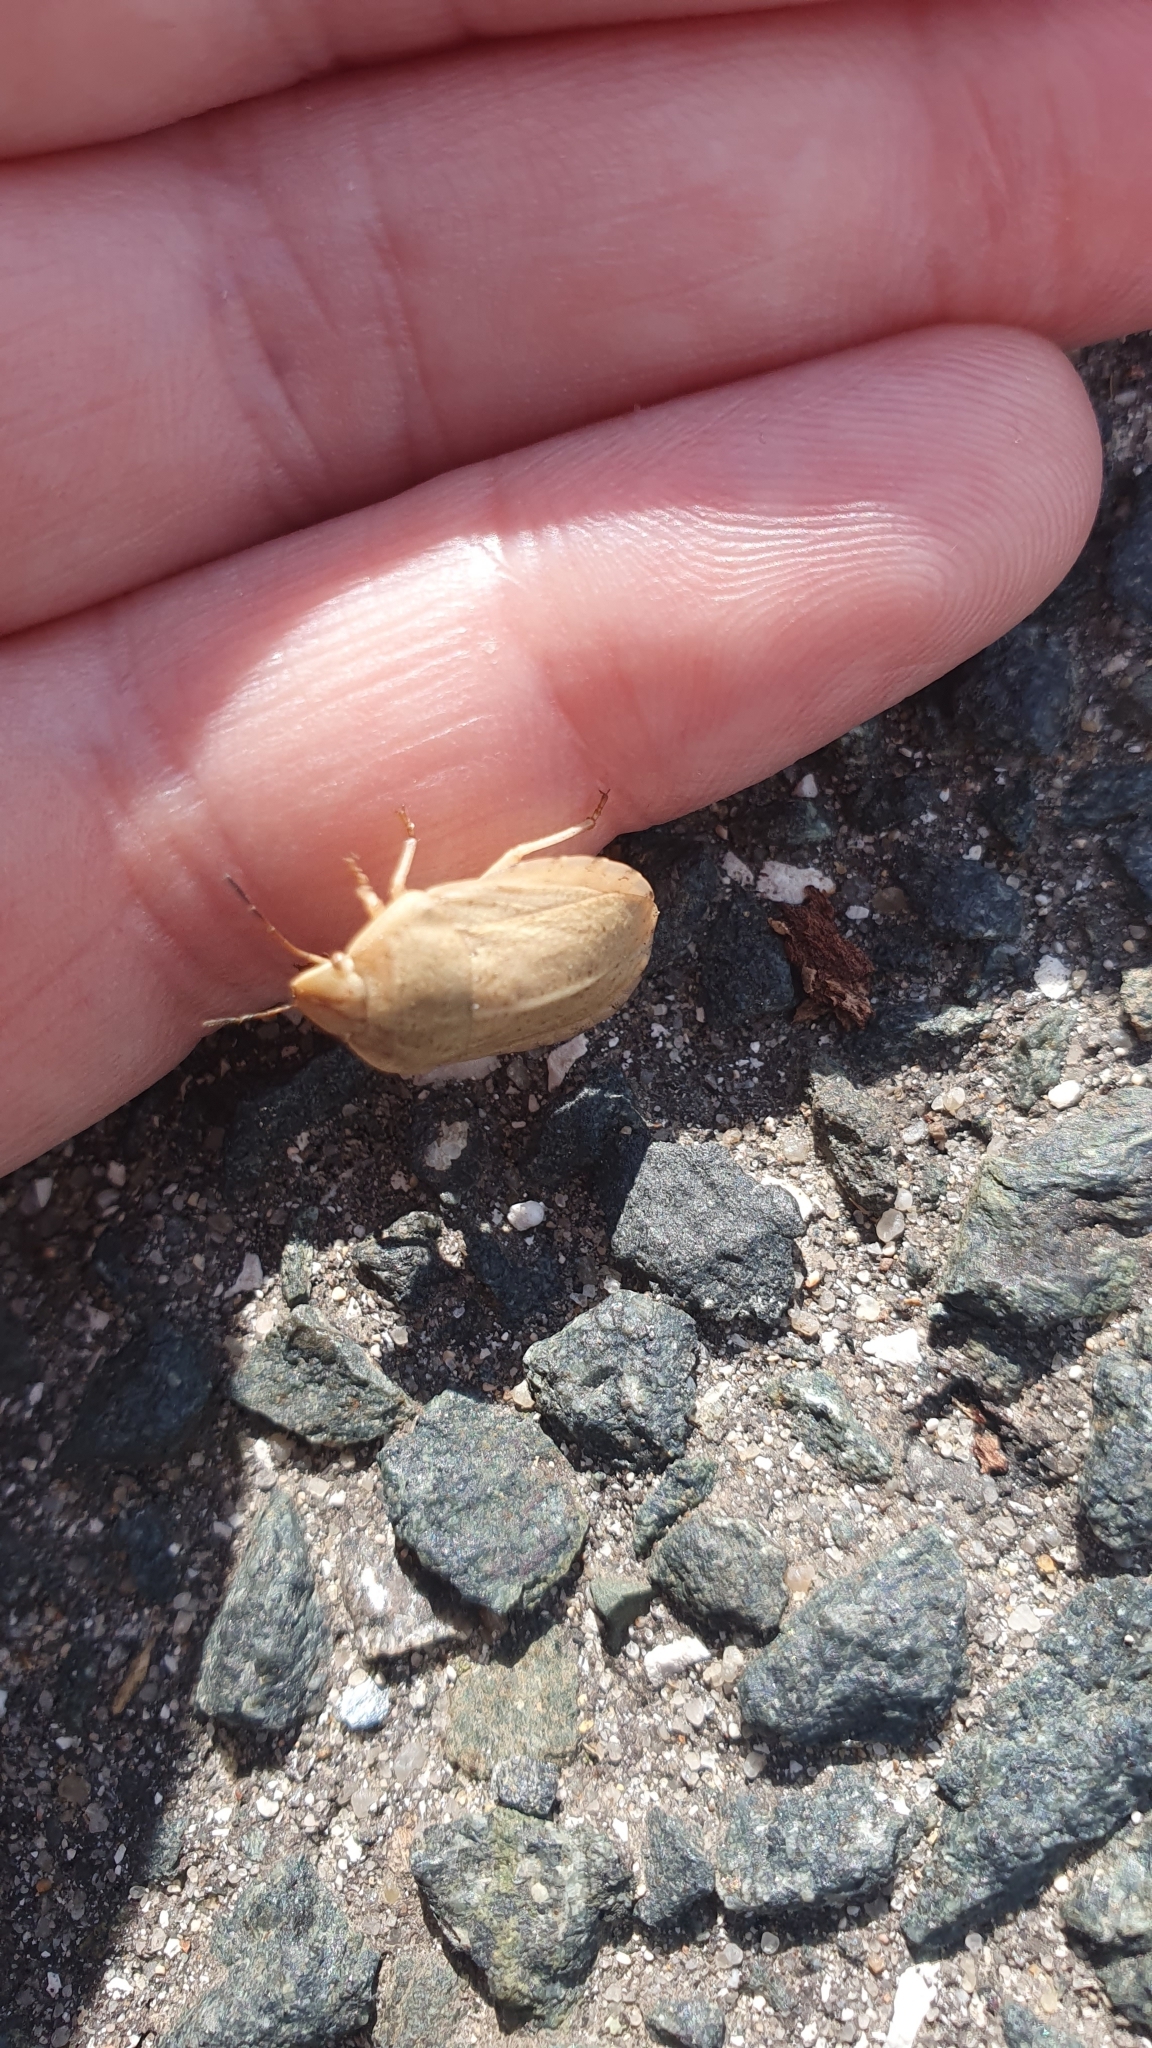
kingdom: Animalia
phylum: Arthropoda
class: Insecta
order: Hemiptera
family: Scutelleridae
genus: Eurygaster
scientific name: Eurygaster austriaca
